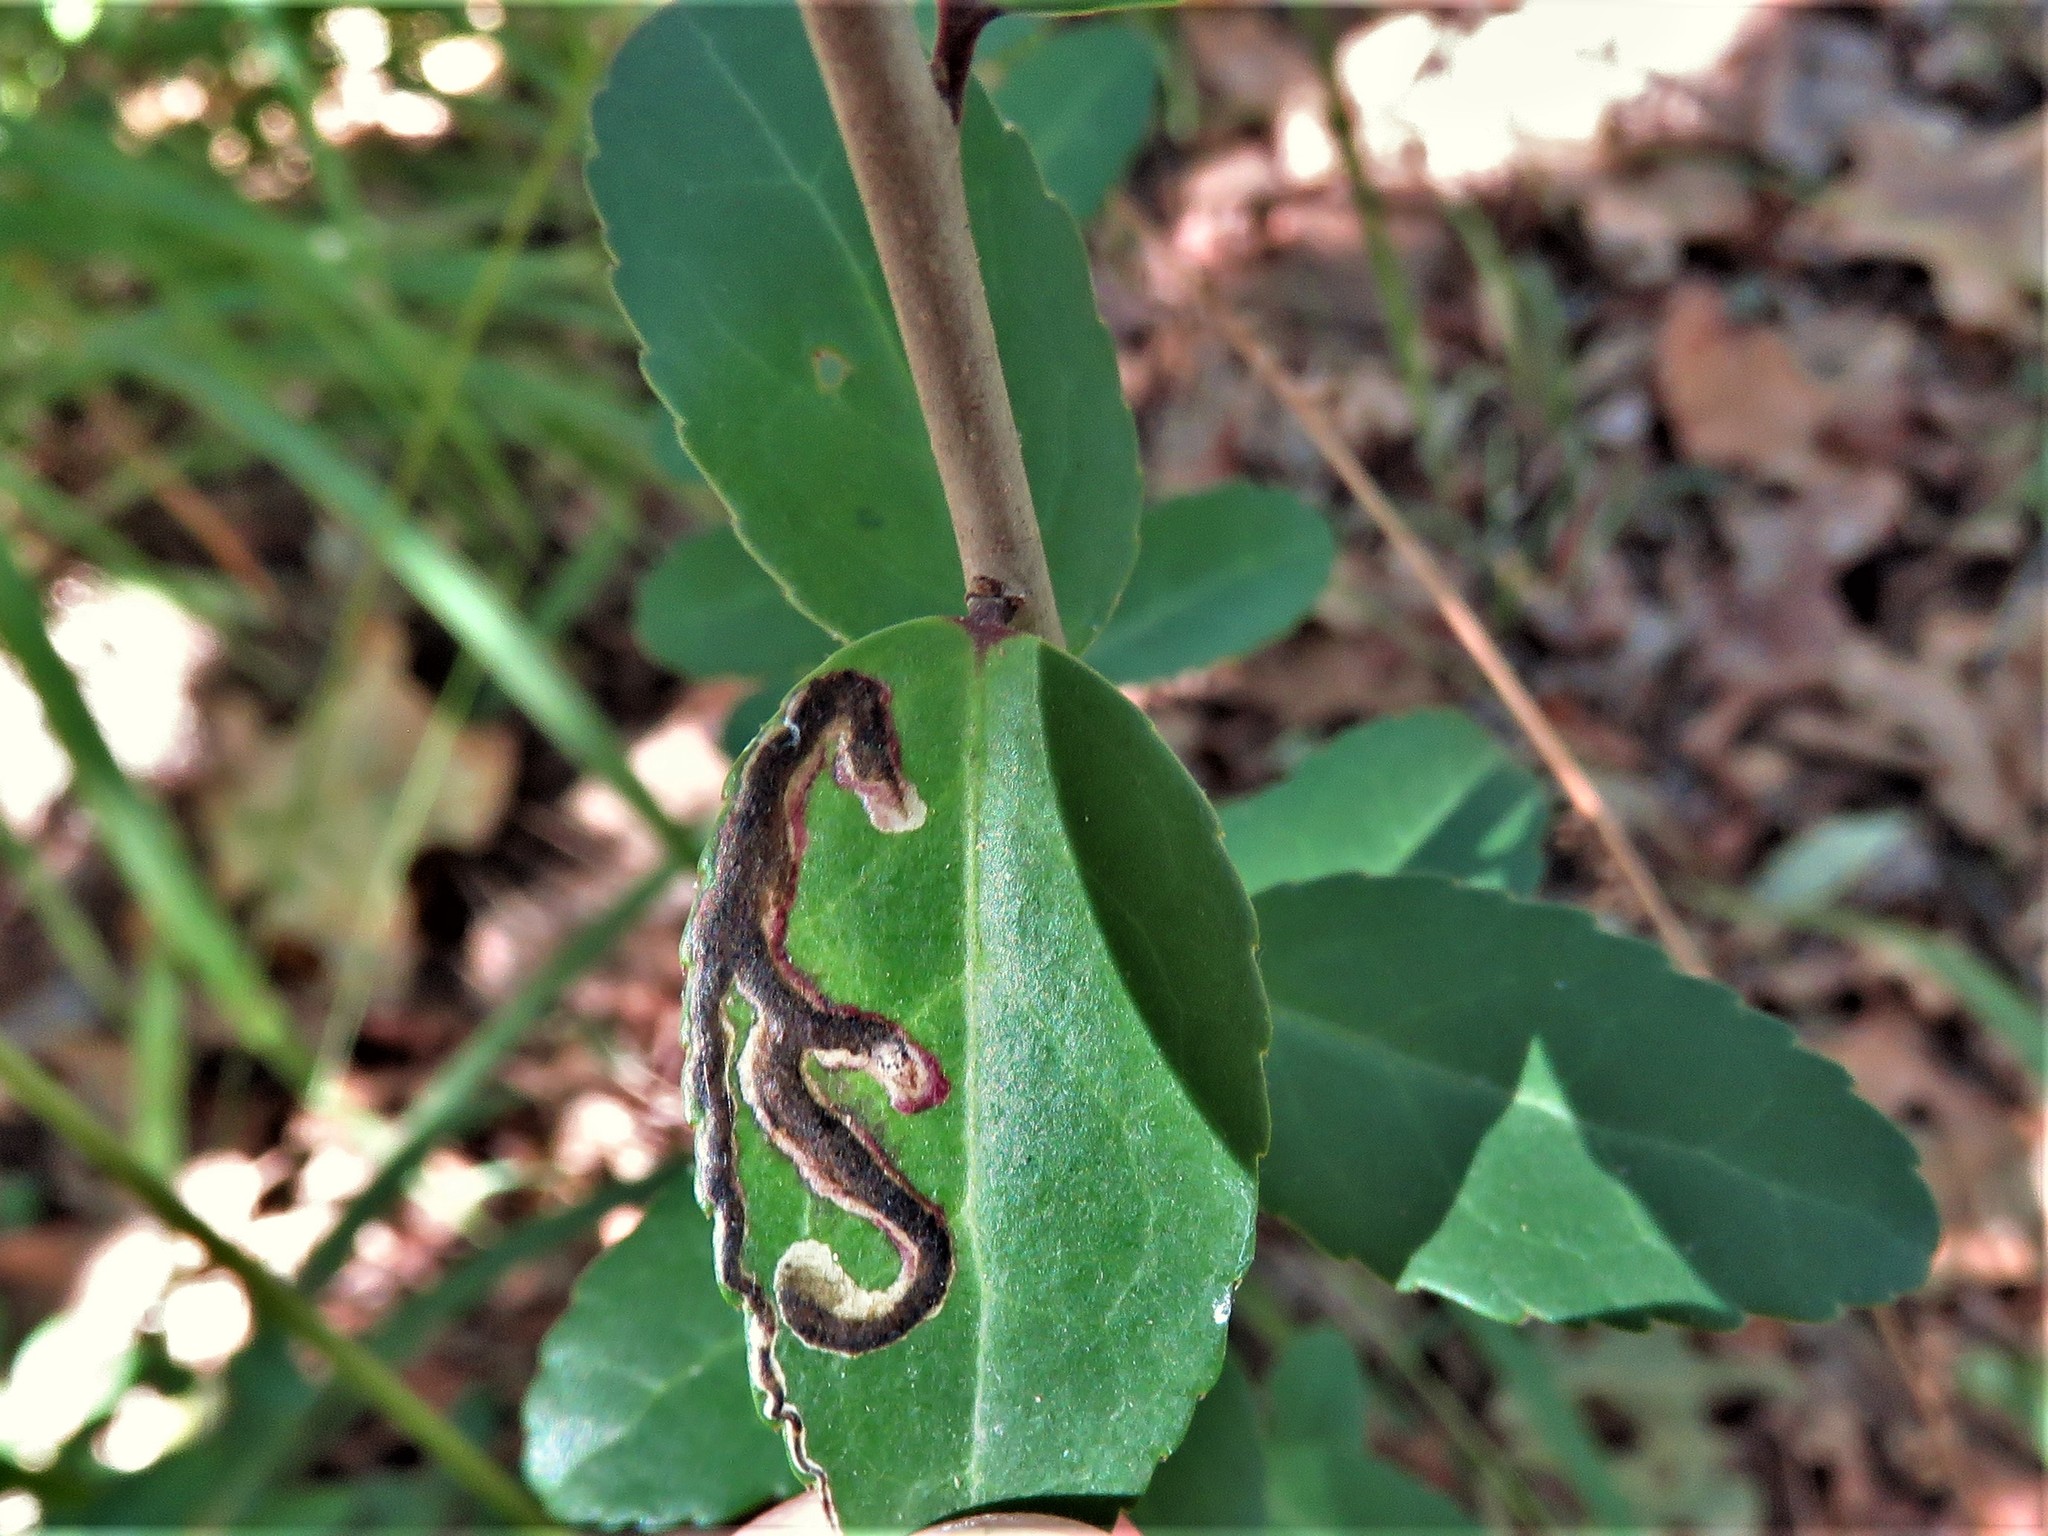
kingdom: Animalia
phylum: Arthropoda
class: Insecta
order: Diptera
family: Agromyzidae
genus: Phytomyza
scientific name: Phytomyza vomitoriae
